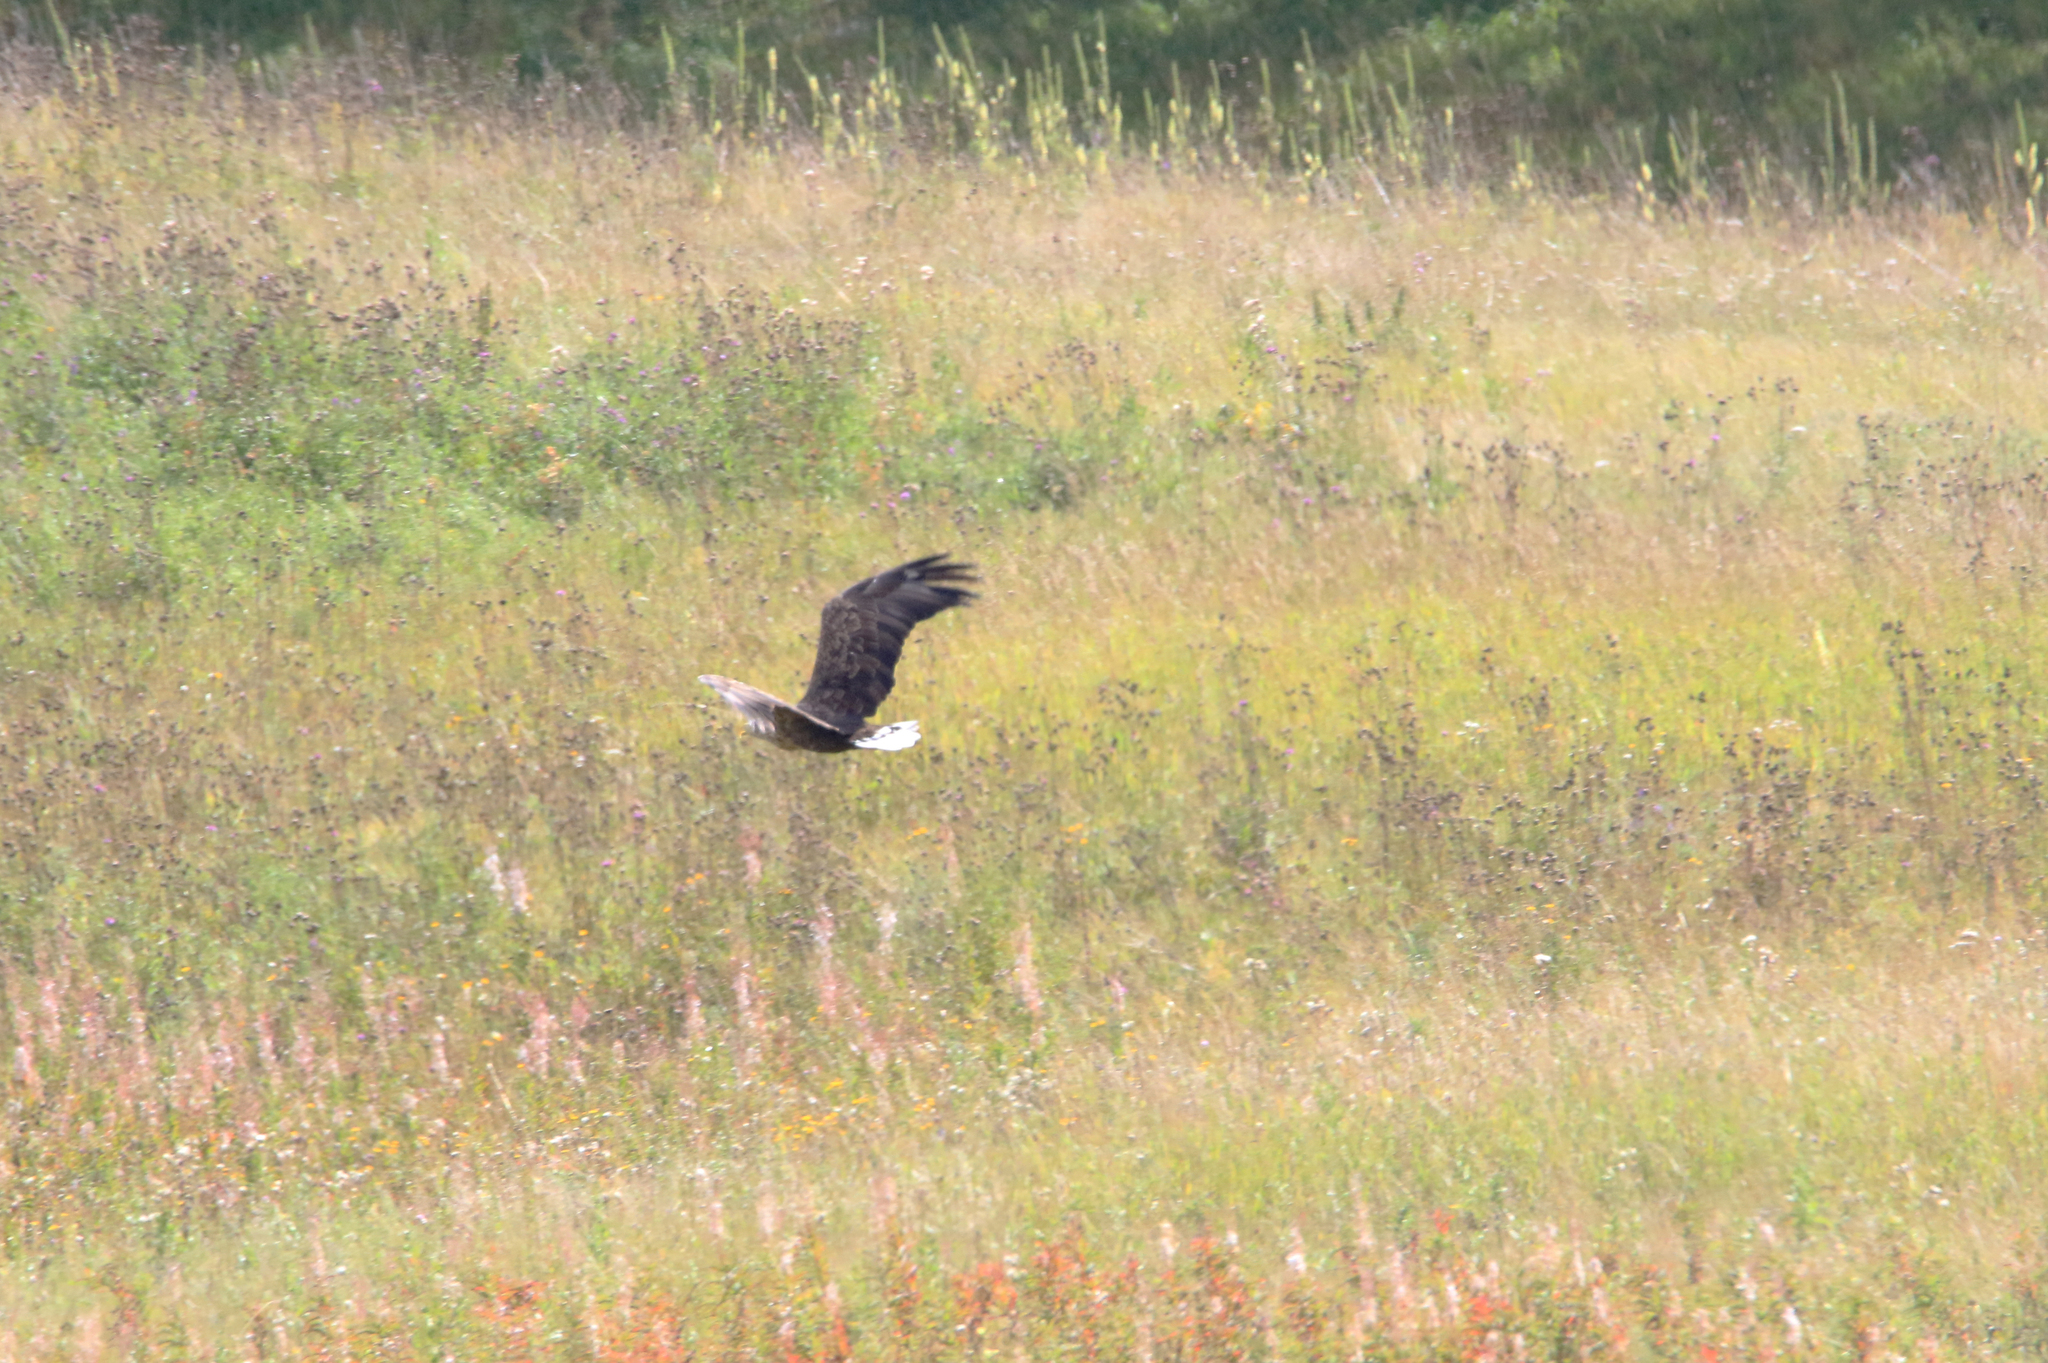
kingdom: Animalia
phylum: Chordata
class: Aves
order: Accipitriformes
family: Accipitridae
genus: Haliaeetus
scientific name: Haliaeetus albicilla
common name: White-tailed eagle
